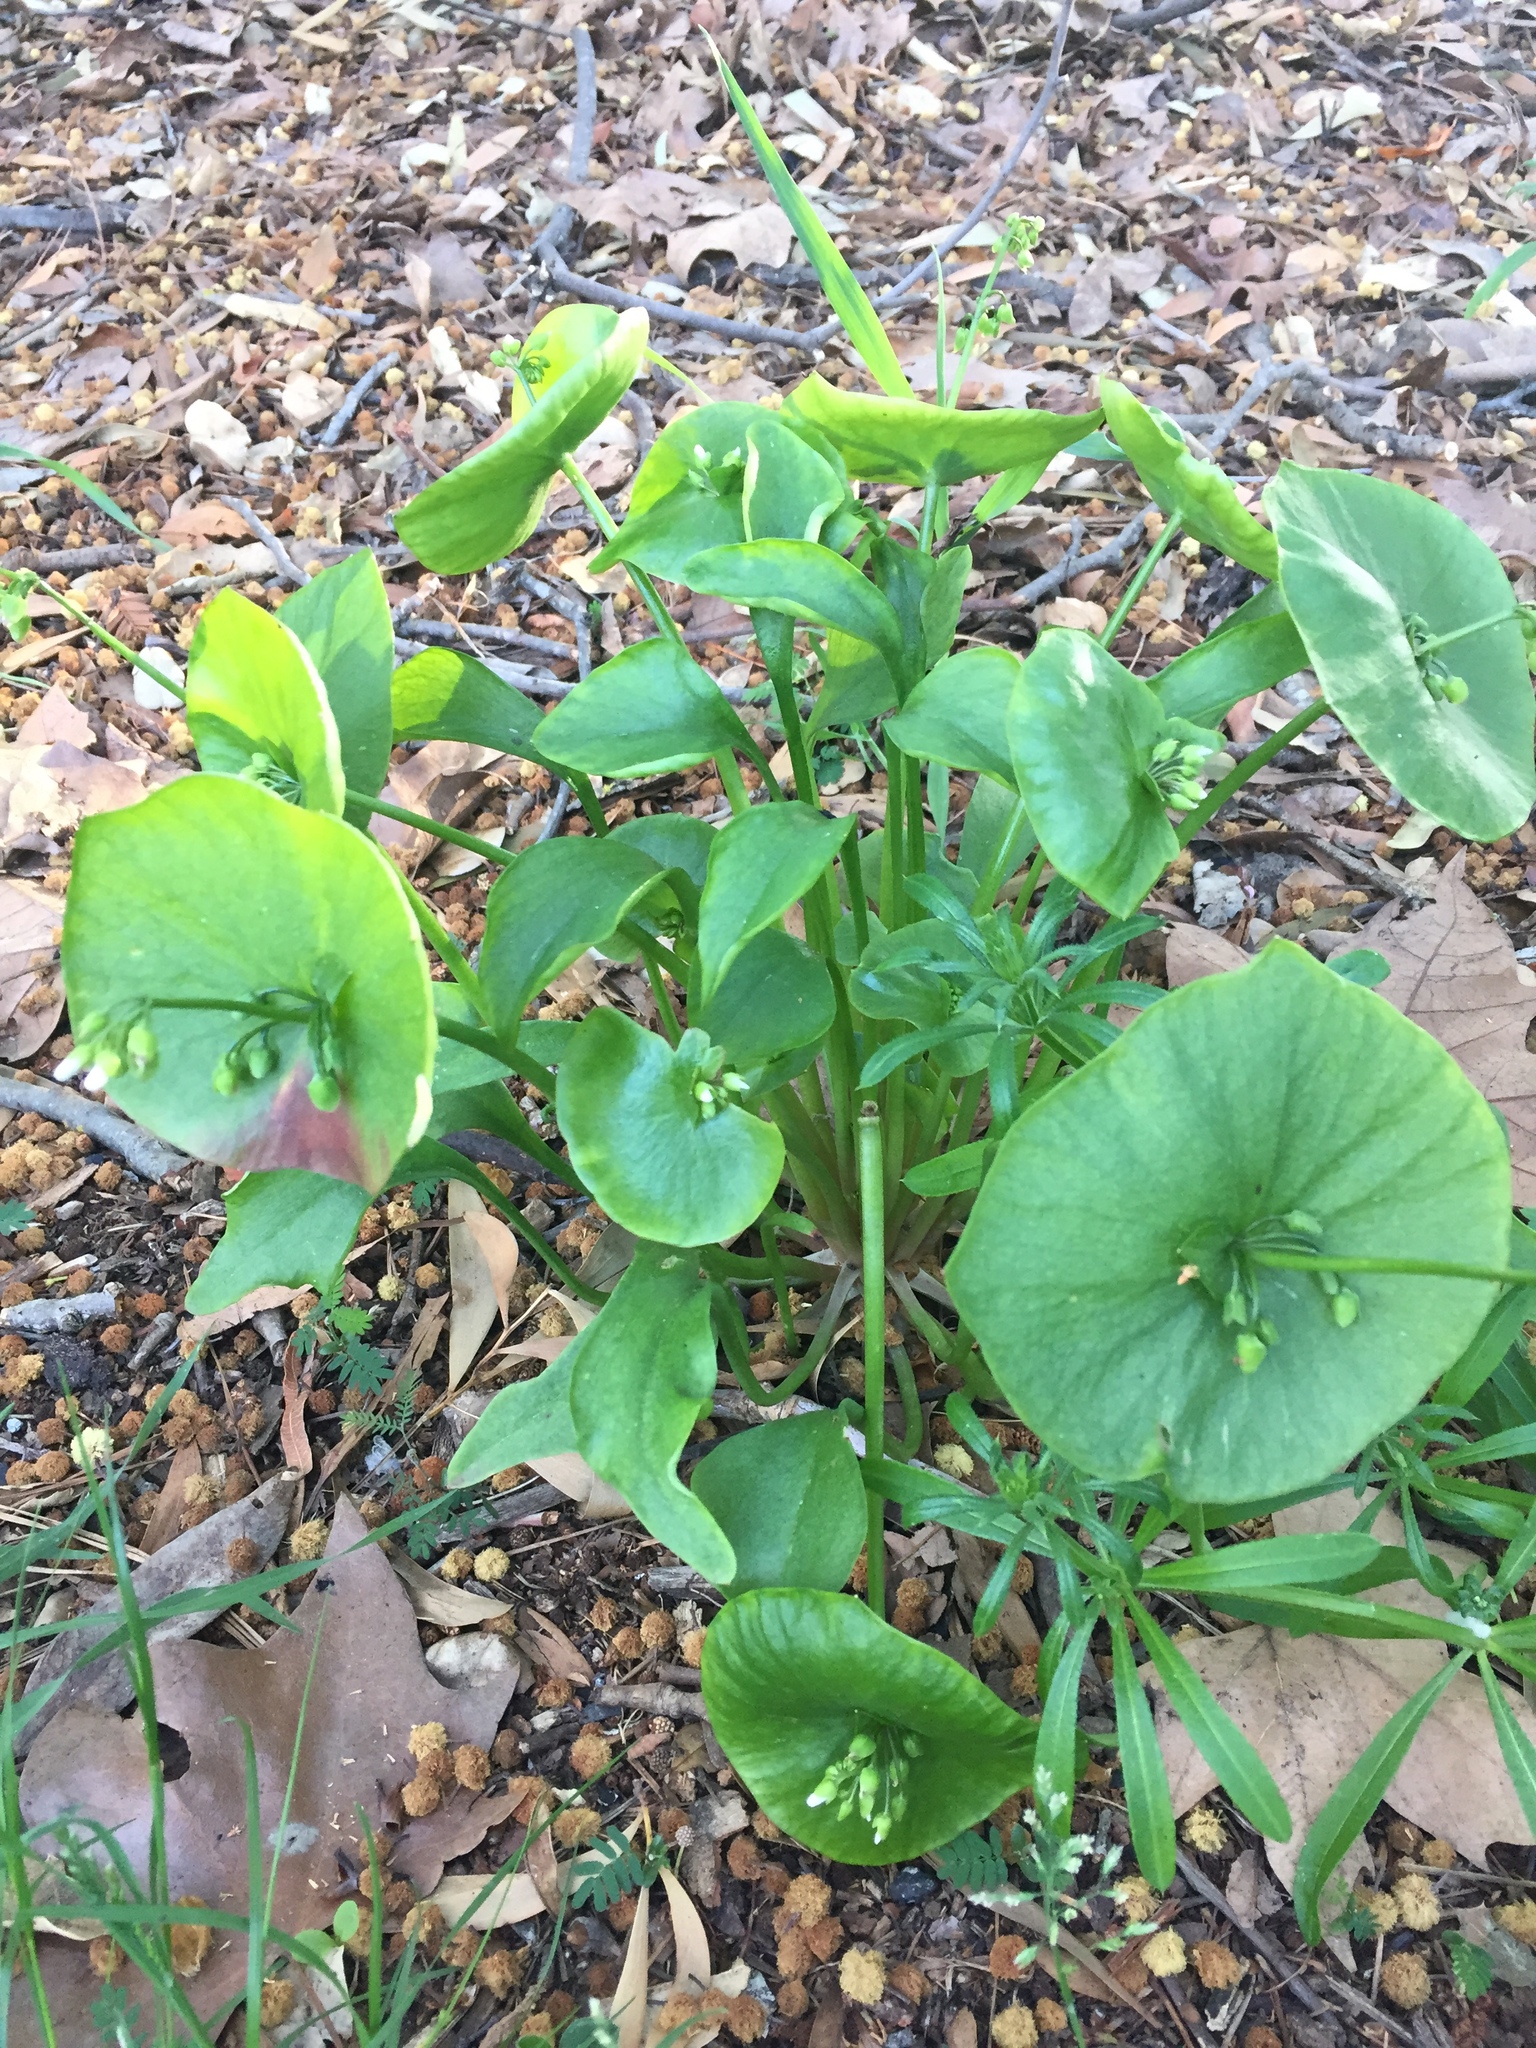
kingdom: Plantae
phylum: Tracheophyta
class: Magnoliopsida
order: Caryophyllales
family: Montiaceae
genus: Claytonia
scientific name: Claytonia perfoliata
